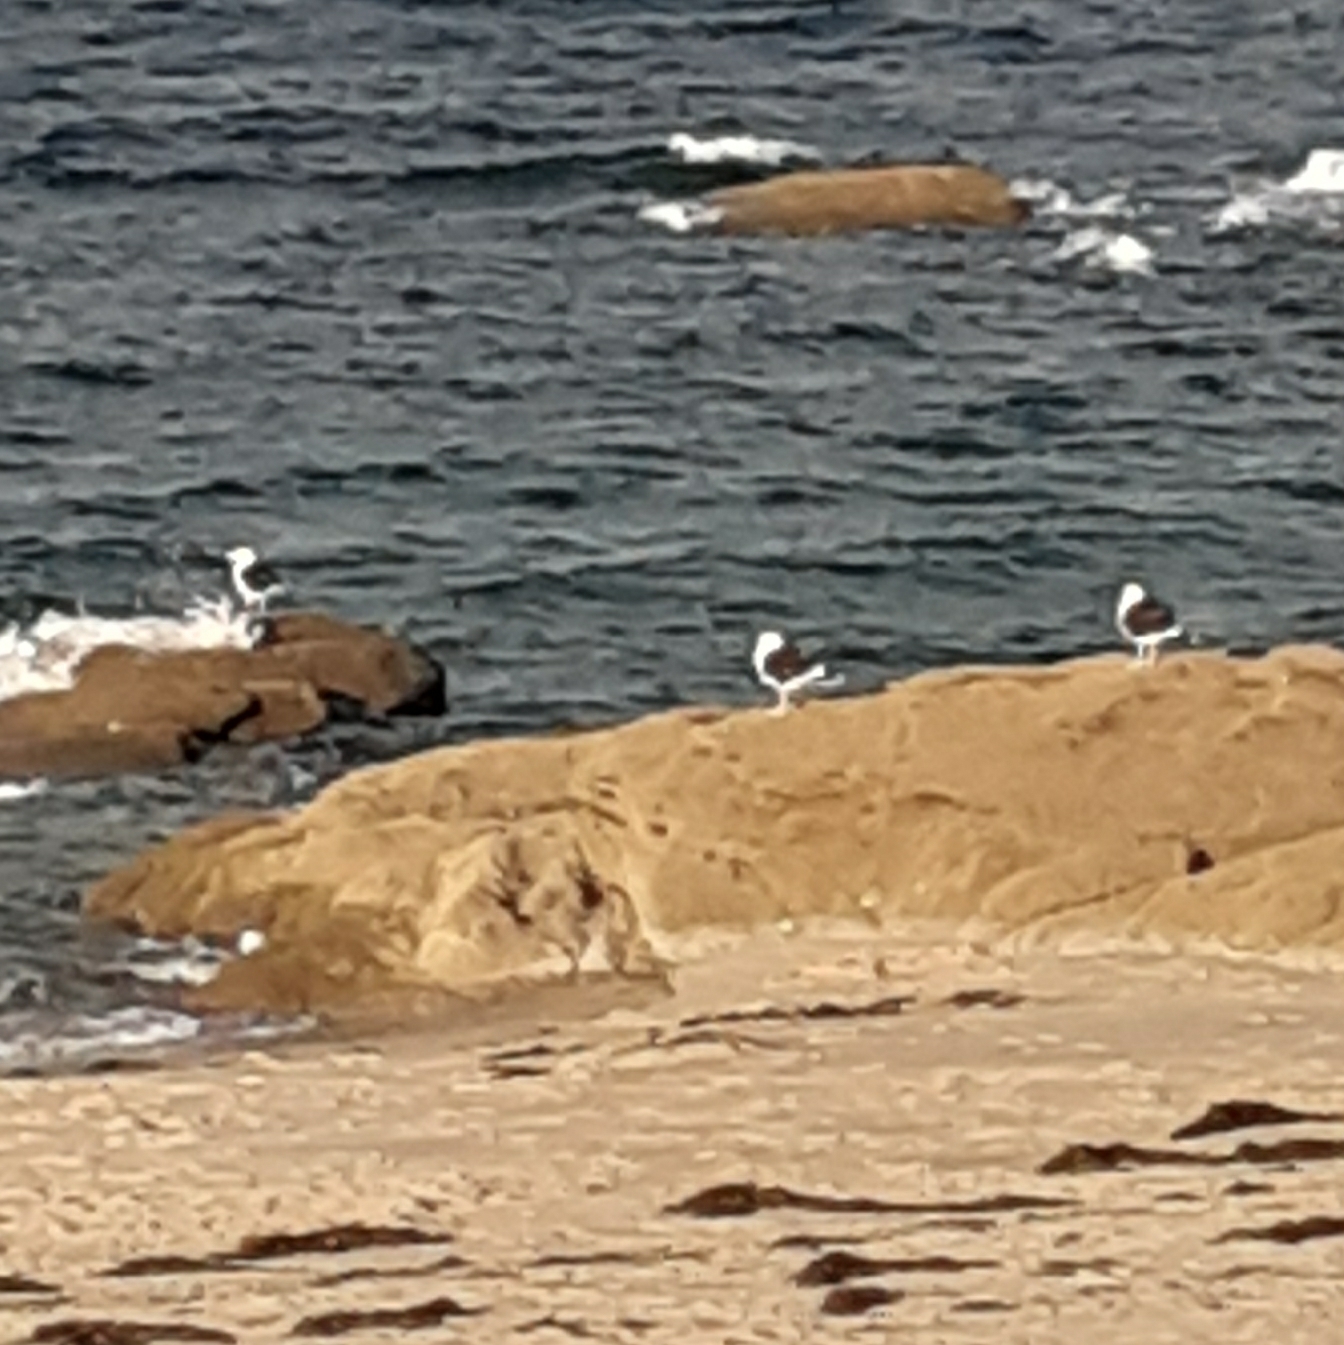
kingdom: Animalia
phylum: Chordata
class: Aves
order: Charadriiformes
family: Laridae
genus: Larus
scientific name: Larus marinus
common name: Great black-backed gull
